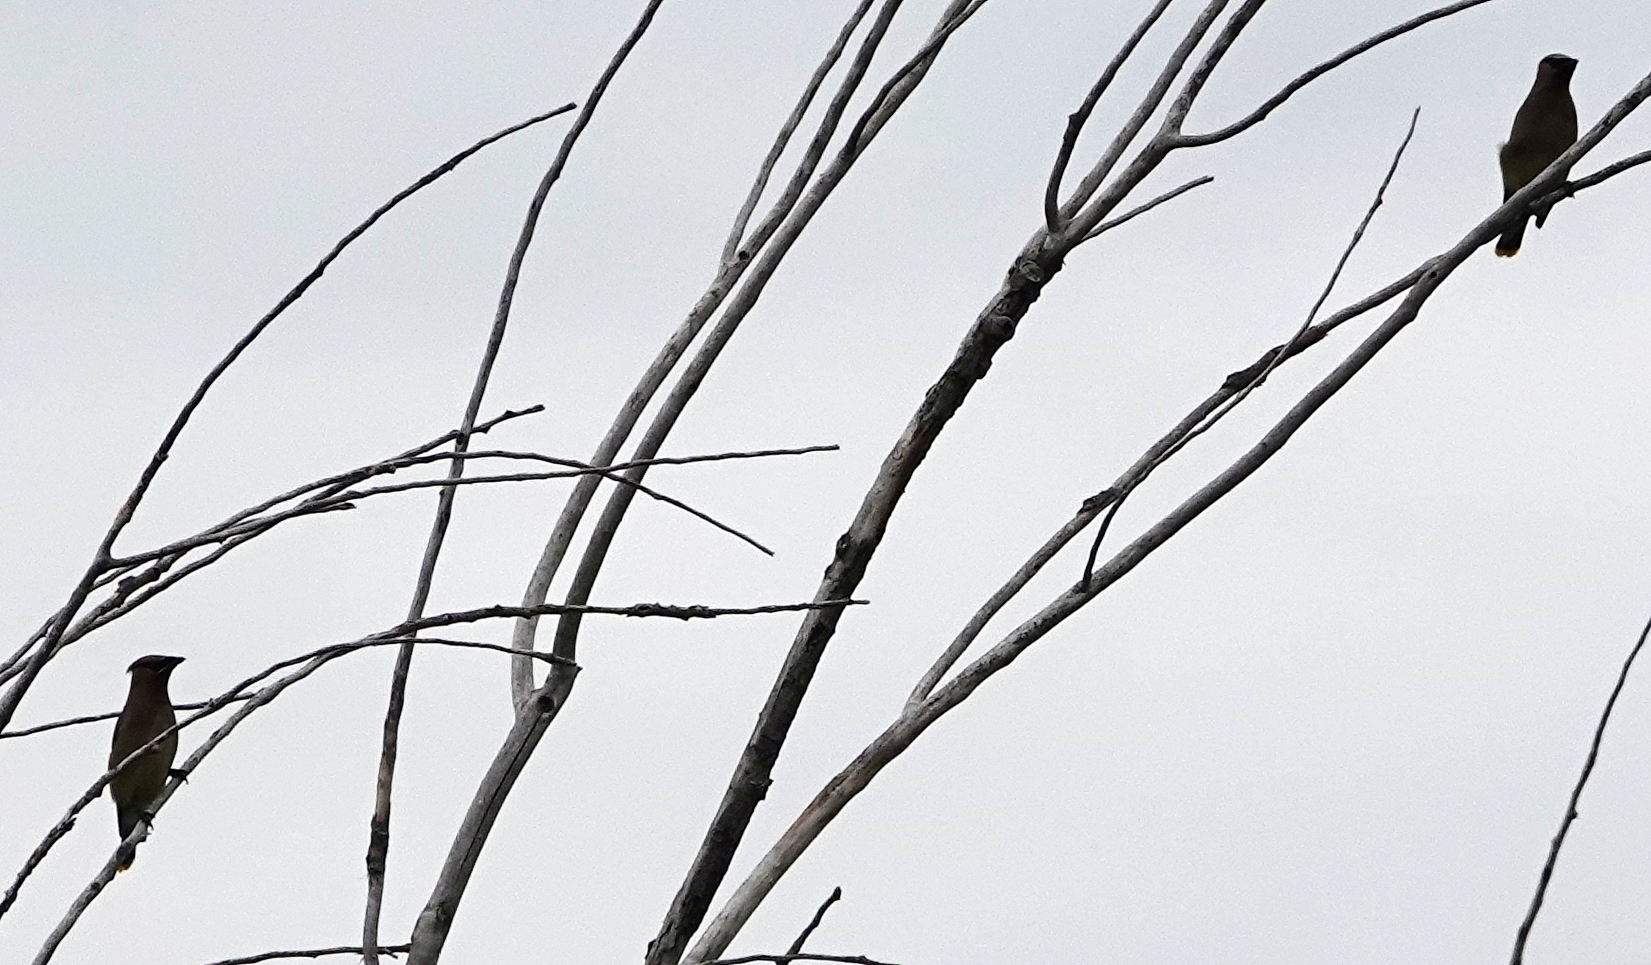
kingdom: Animalia
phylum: Chordata
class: Aves
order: Passeriformes
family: Bombycillidae
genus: Bombycilla
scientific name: Bombycilla cedrorum
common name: Cedar waxwing
